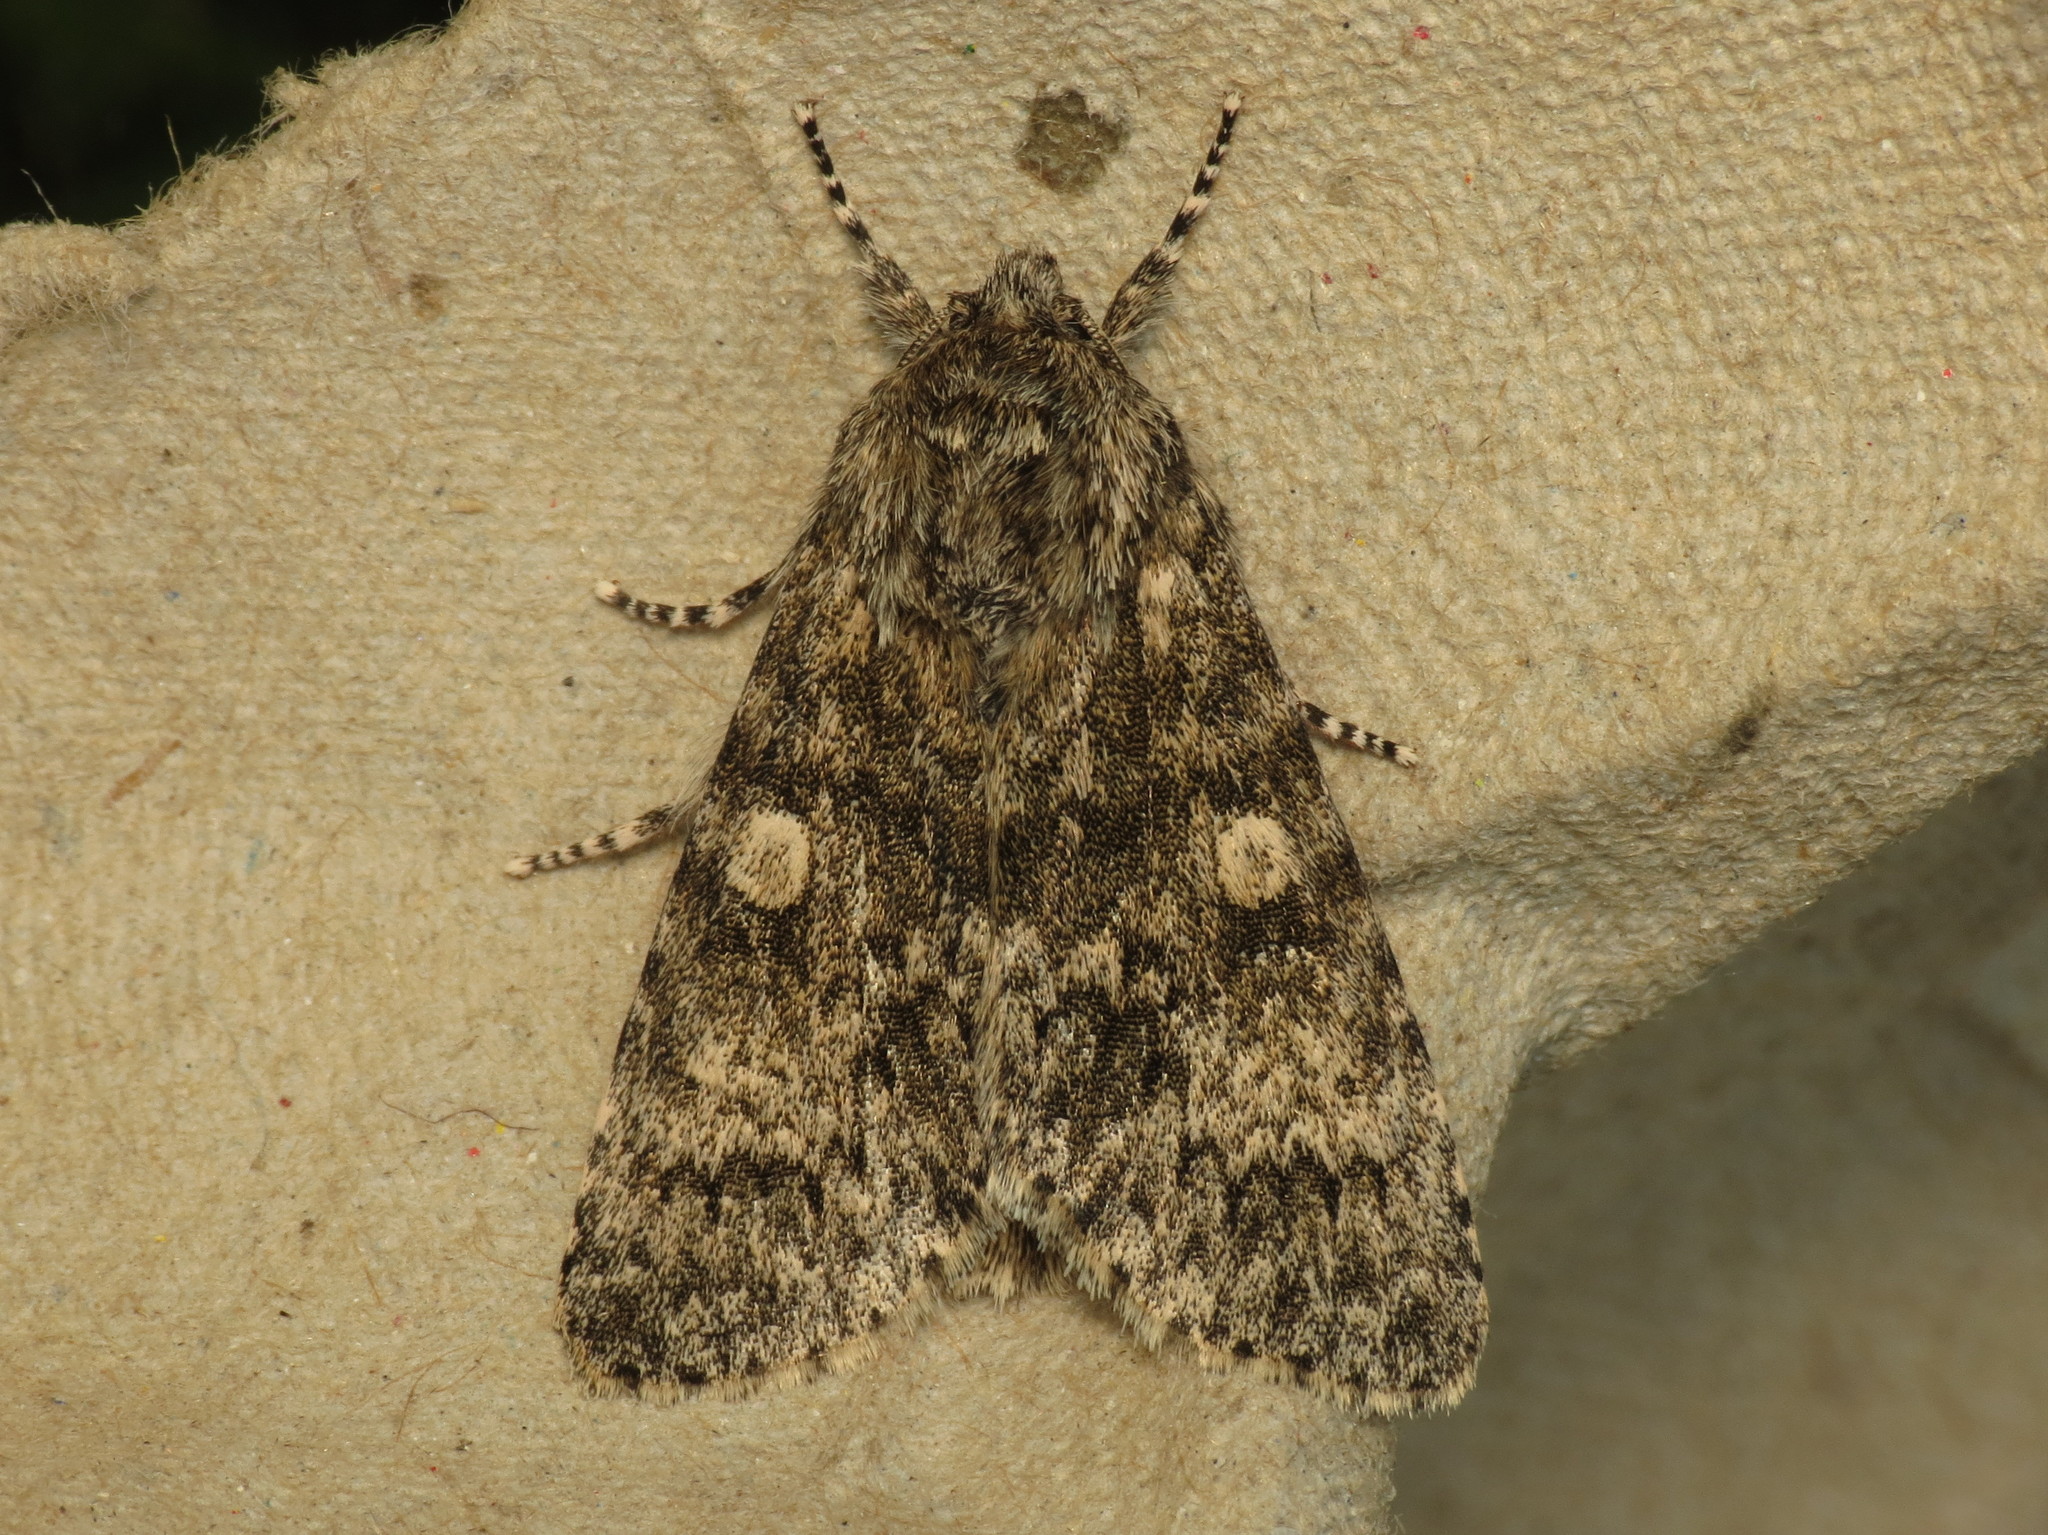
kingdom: Animalia
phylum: Arthropoda
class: Insecta
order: Lepidoptera
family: Noctuidae
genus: Acronicta
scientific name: Acronicta megacephala
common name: Poplar grey
